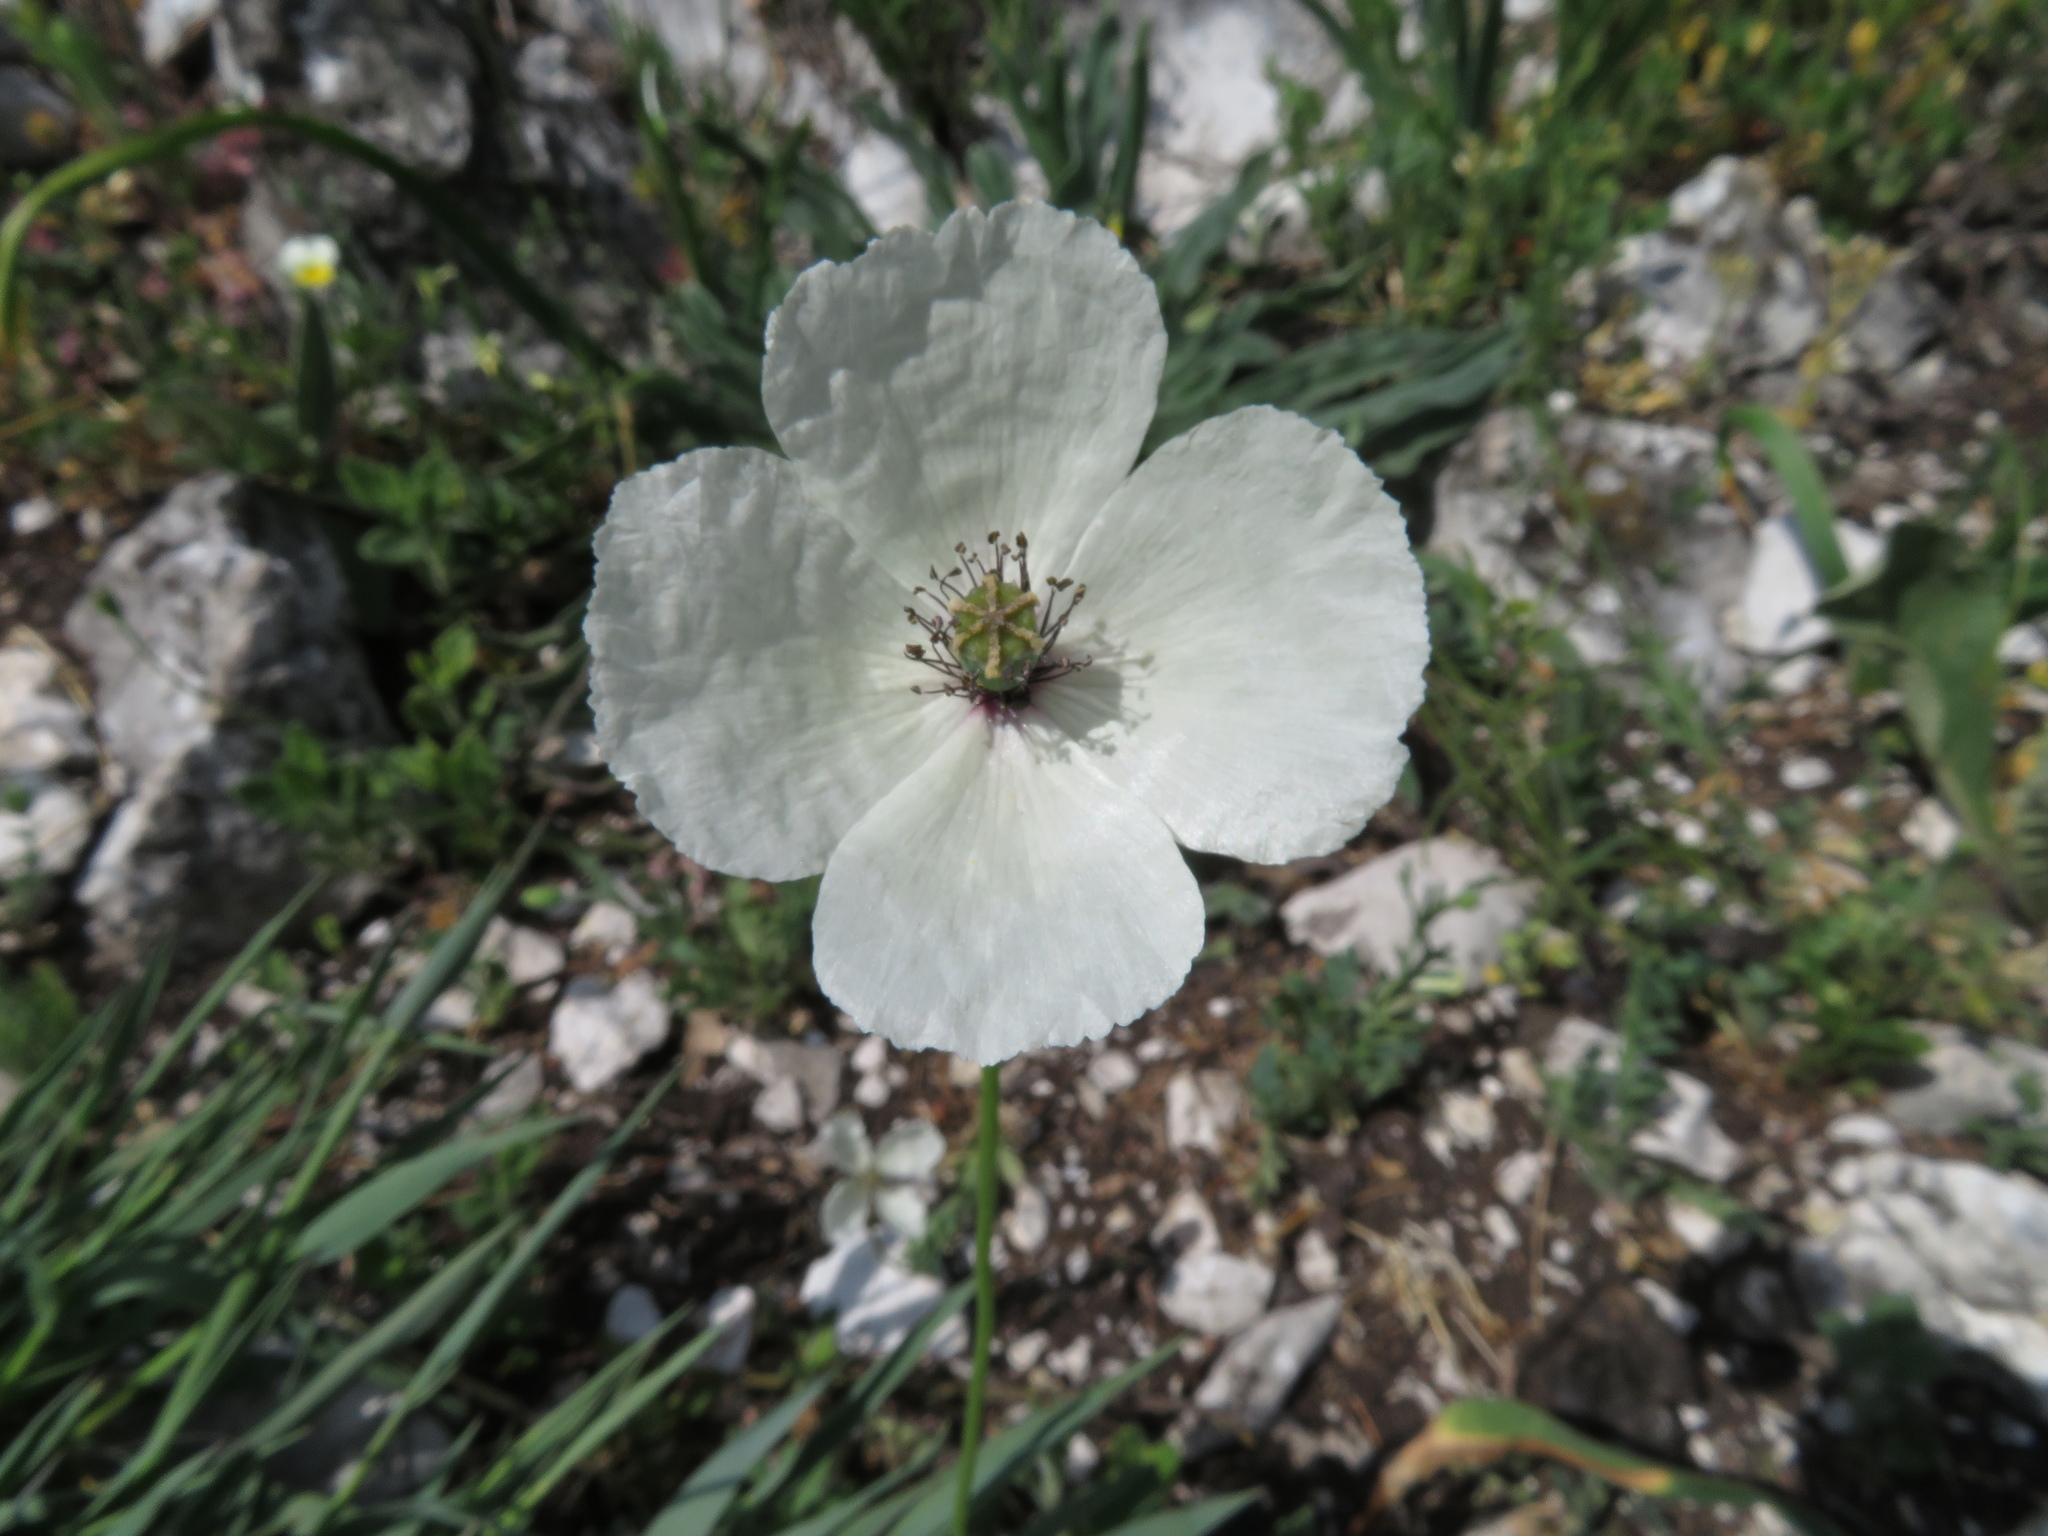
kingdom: Plantae
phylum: Tracheophyta
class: Magnoliopsida
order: Ranunculales
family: Papaveraceae
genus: Papaver
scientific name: Papaver dubium
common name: Long-headed poppy
